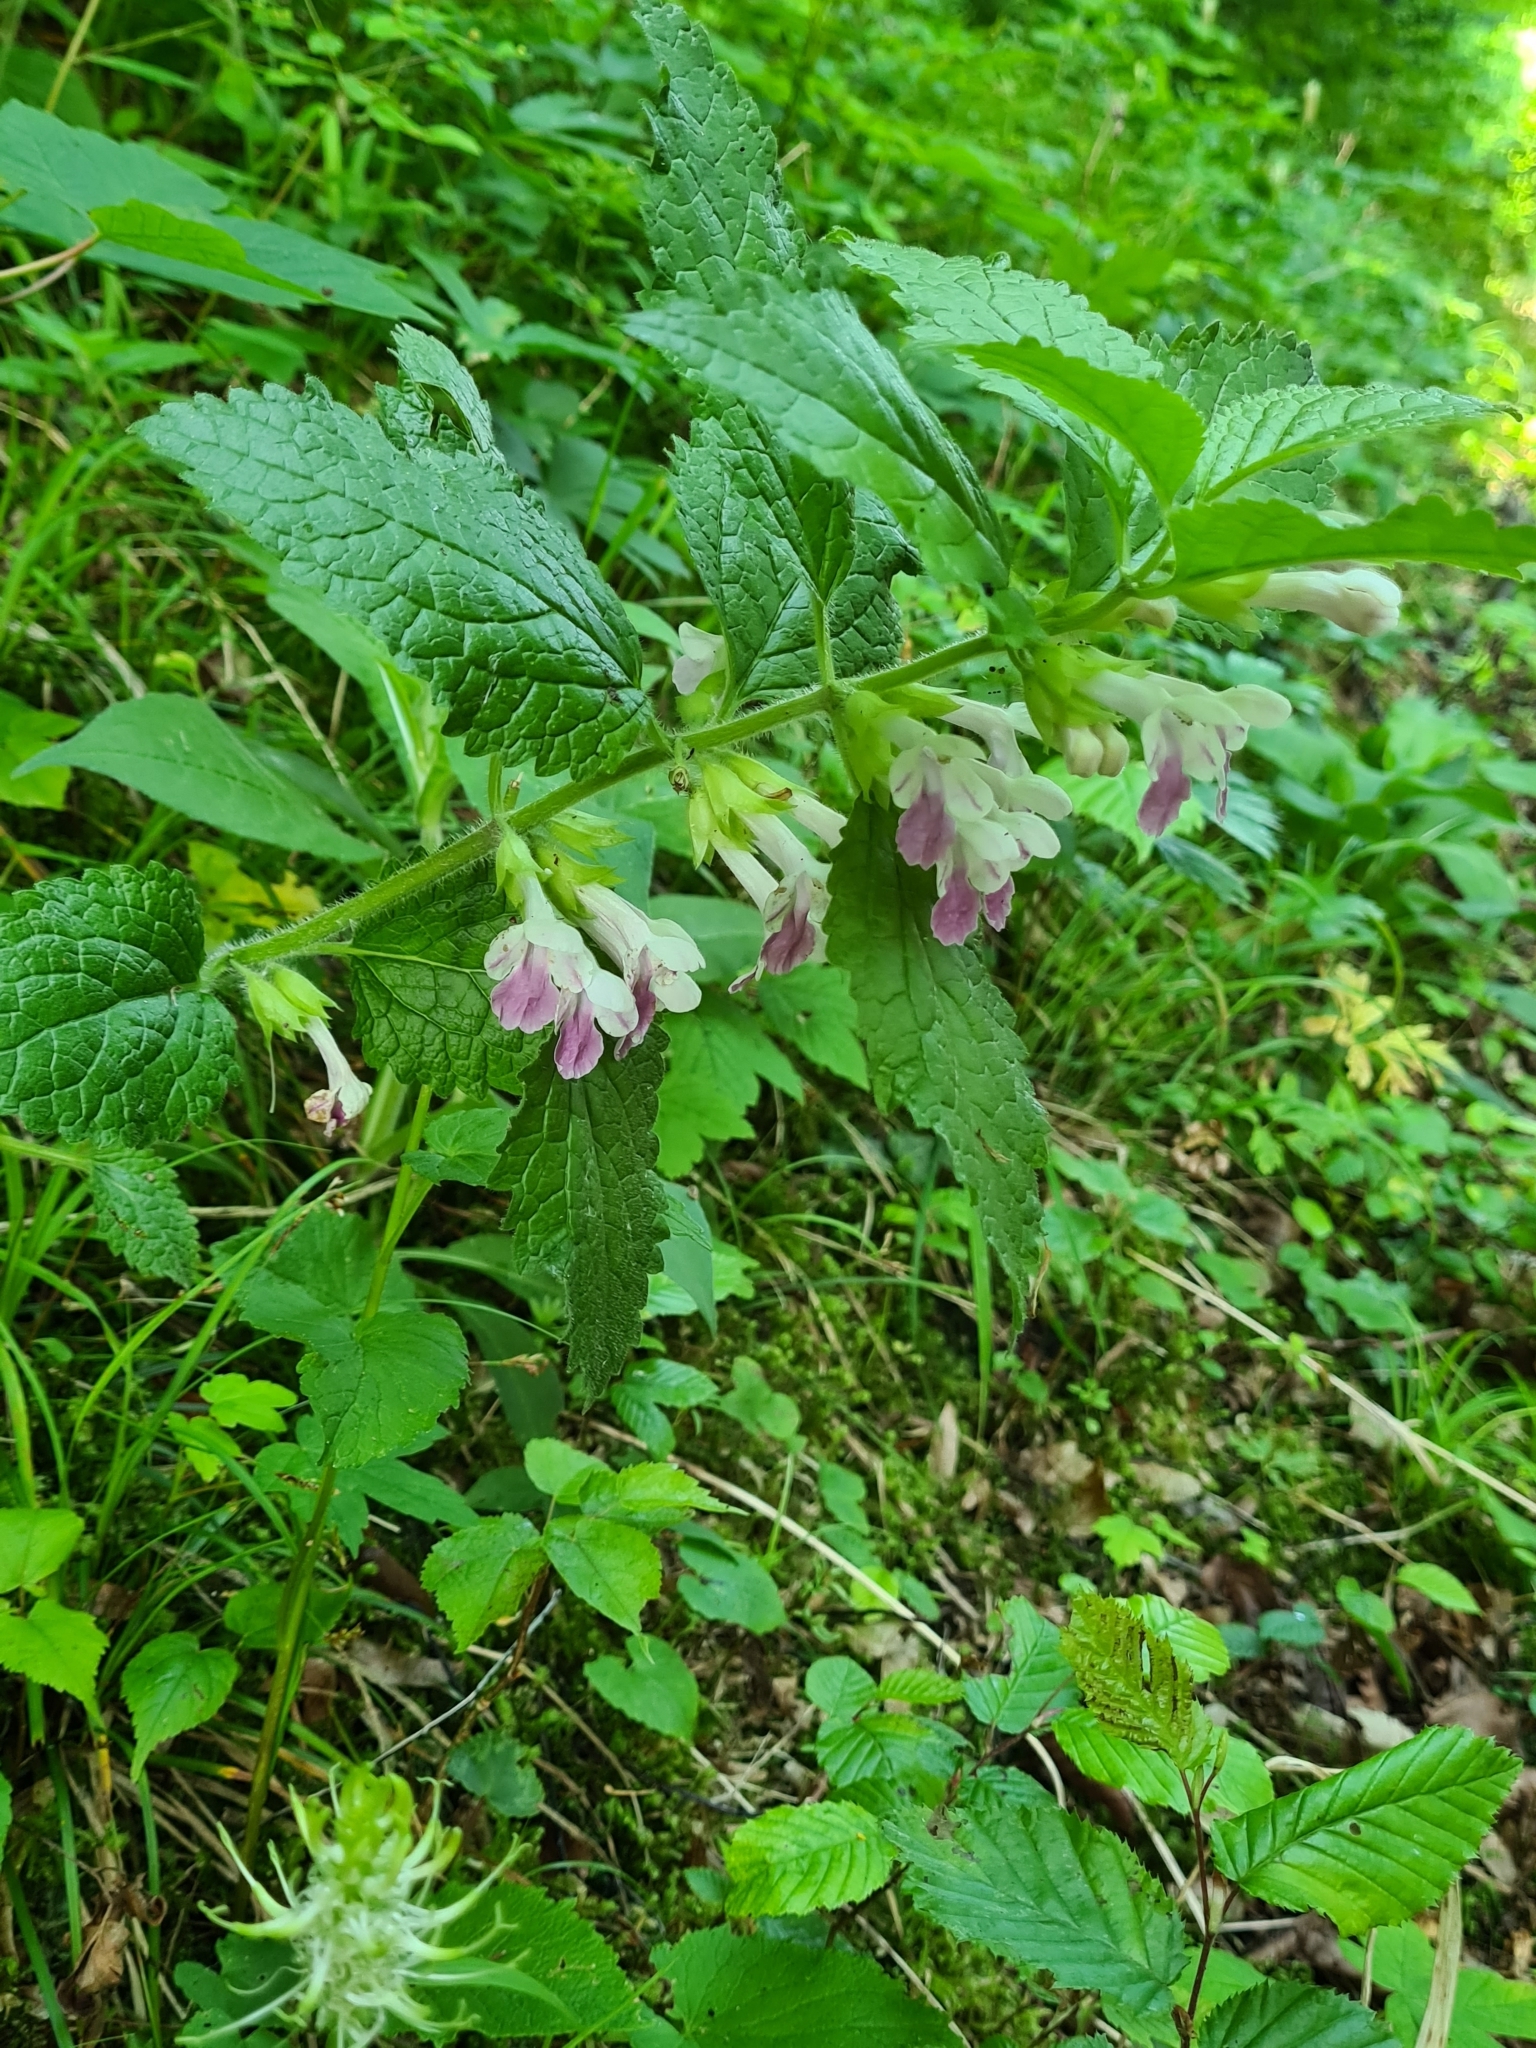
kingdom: Plantae
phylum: Tracheophyta
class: Magnoliopsida
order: Lamiales
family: Lamiaceae
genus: Melittis
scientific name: Melittis melissophyllum
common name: Bastard balm
